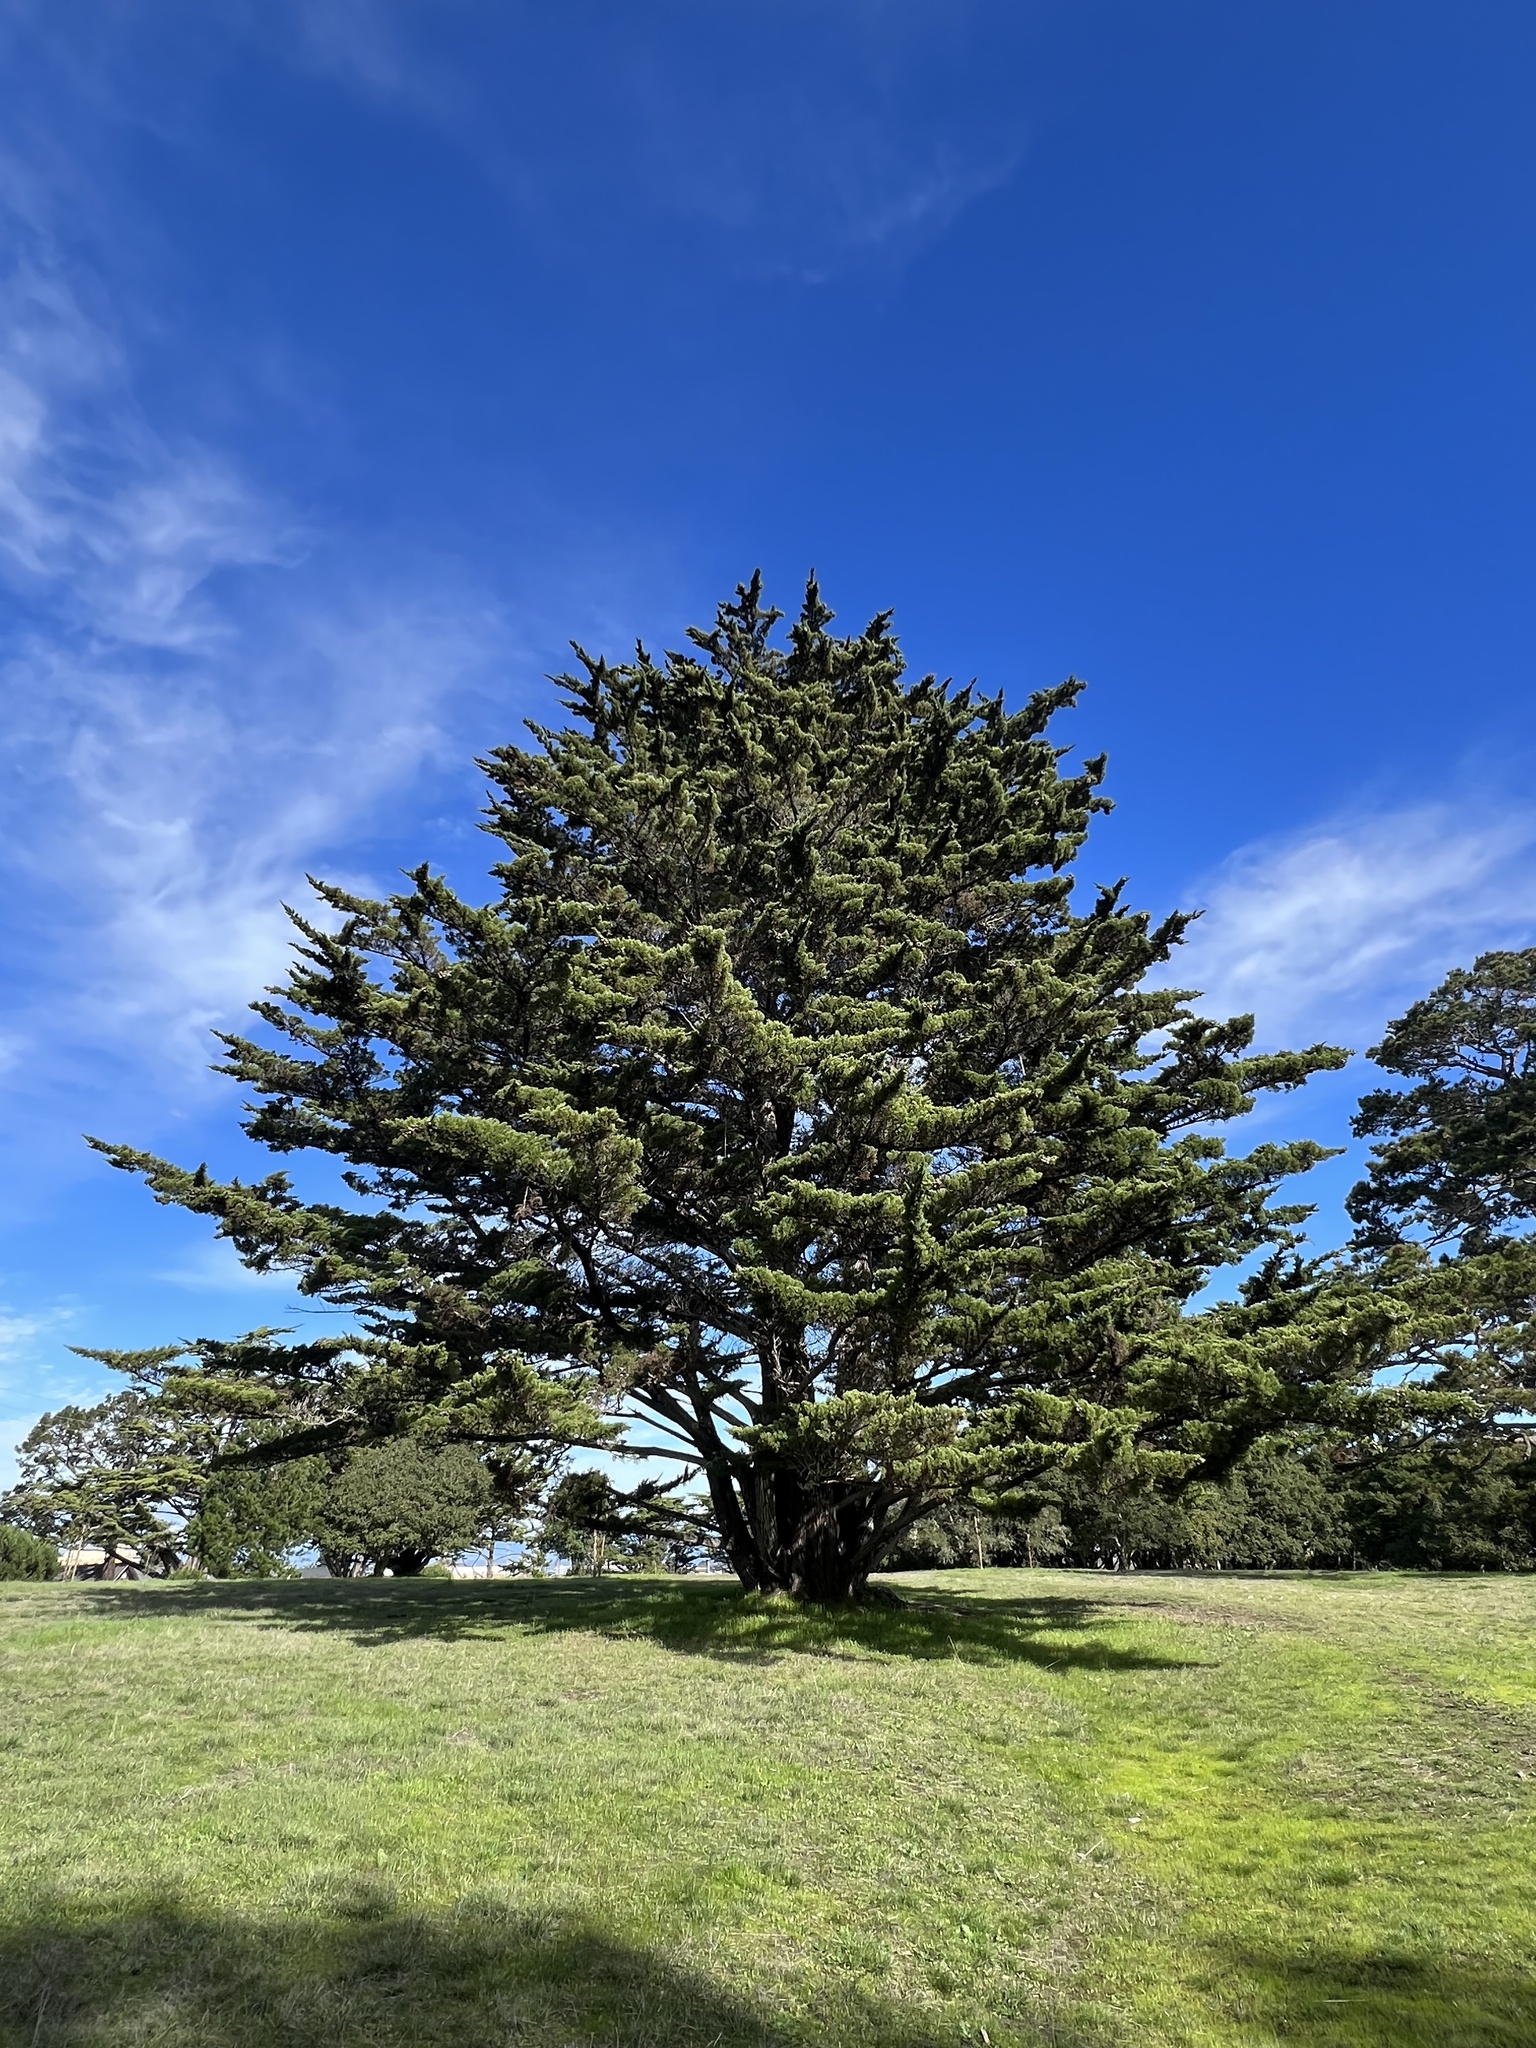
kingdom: Plantae
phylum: Tracheophyta
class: Pinopsida
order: Pinales
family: Cupressaceae
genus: Cupressus
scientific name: Cupressus macrocarpa
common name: Monterey cypress
